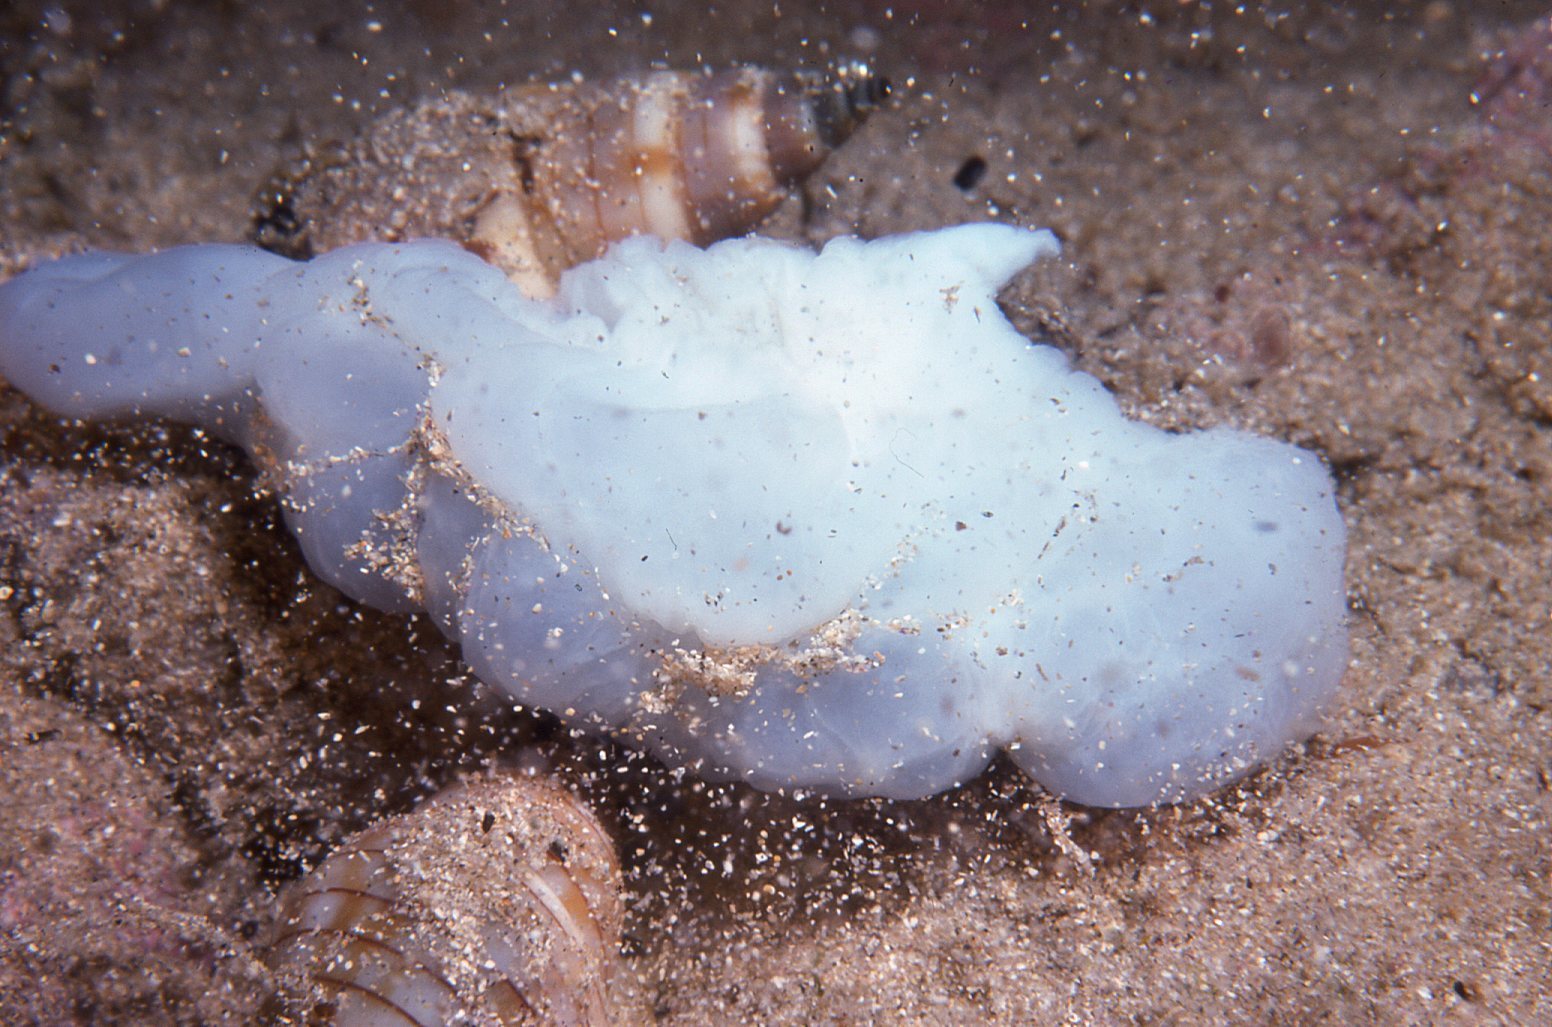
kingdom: Animalia
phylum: Mollusca
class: Gastropoda
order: Neogastropoda
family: Nassariidae
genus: Nassarius
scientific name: Nassarius particeps
